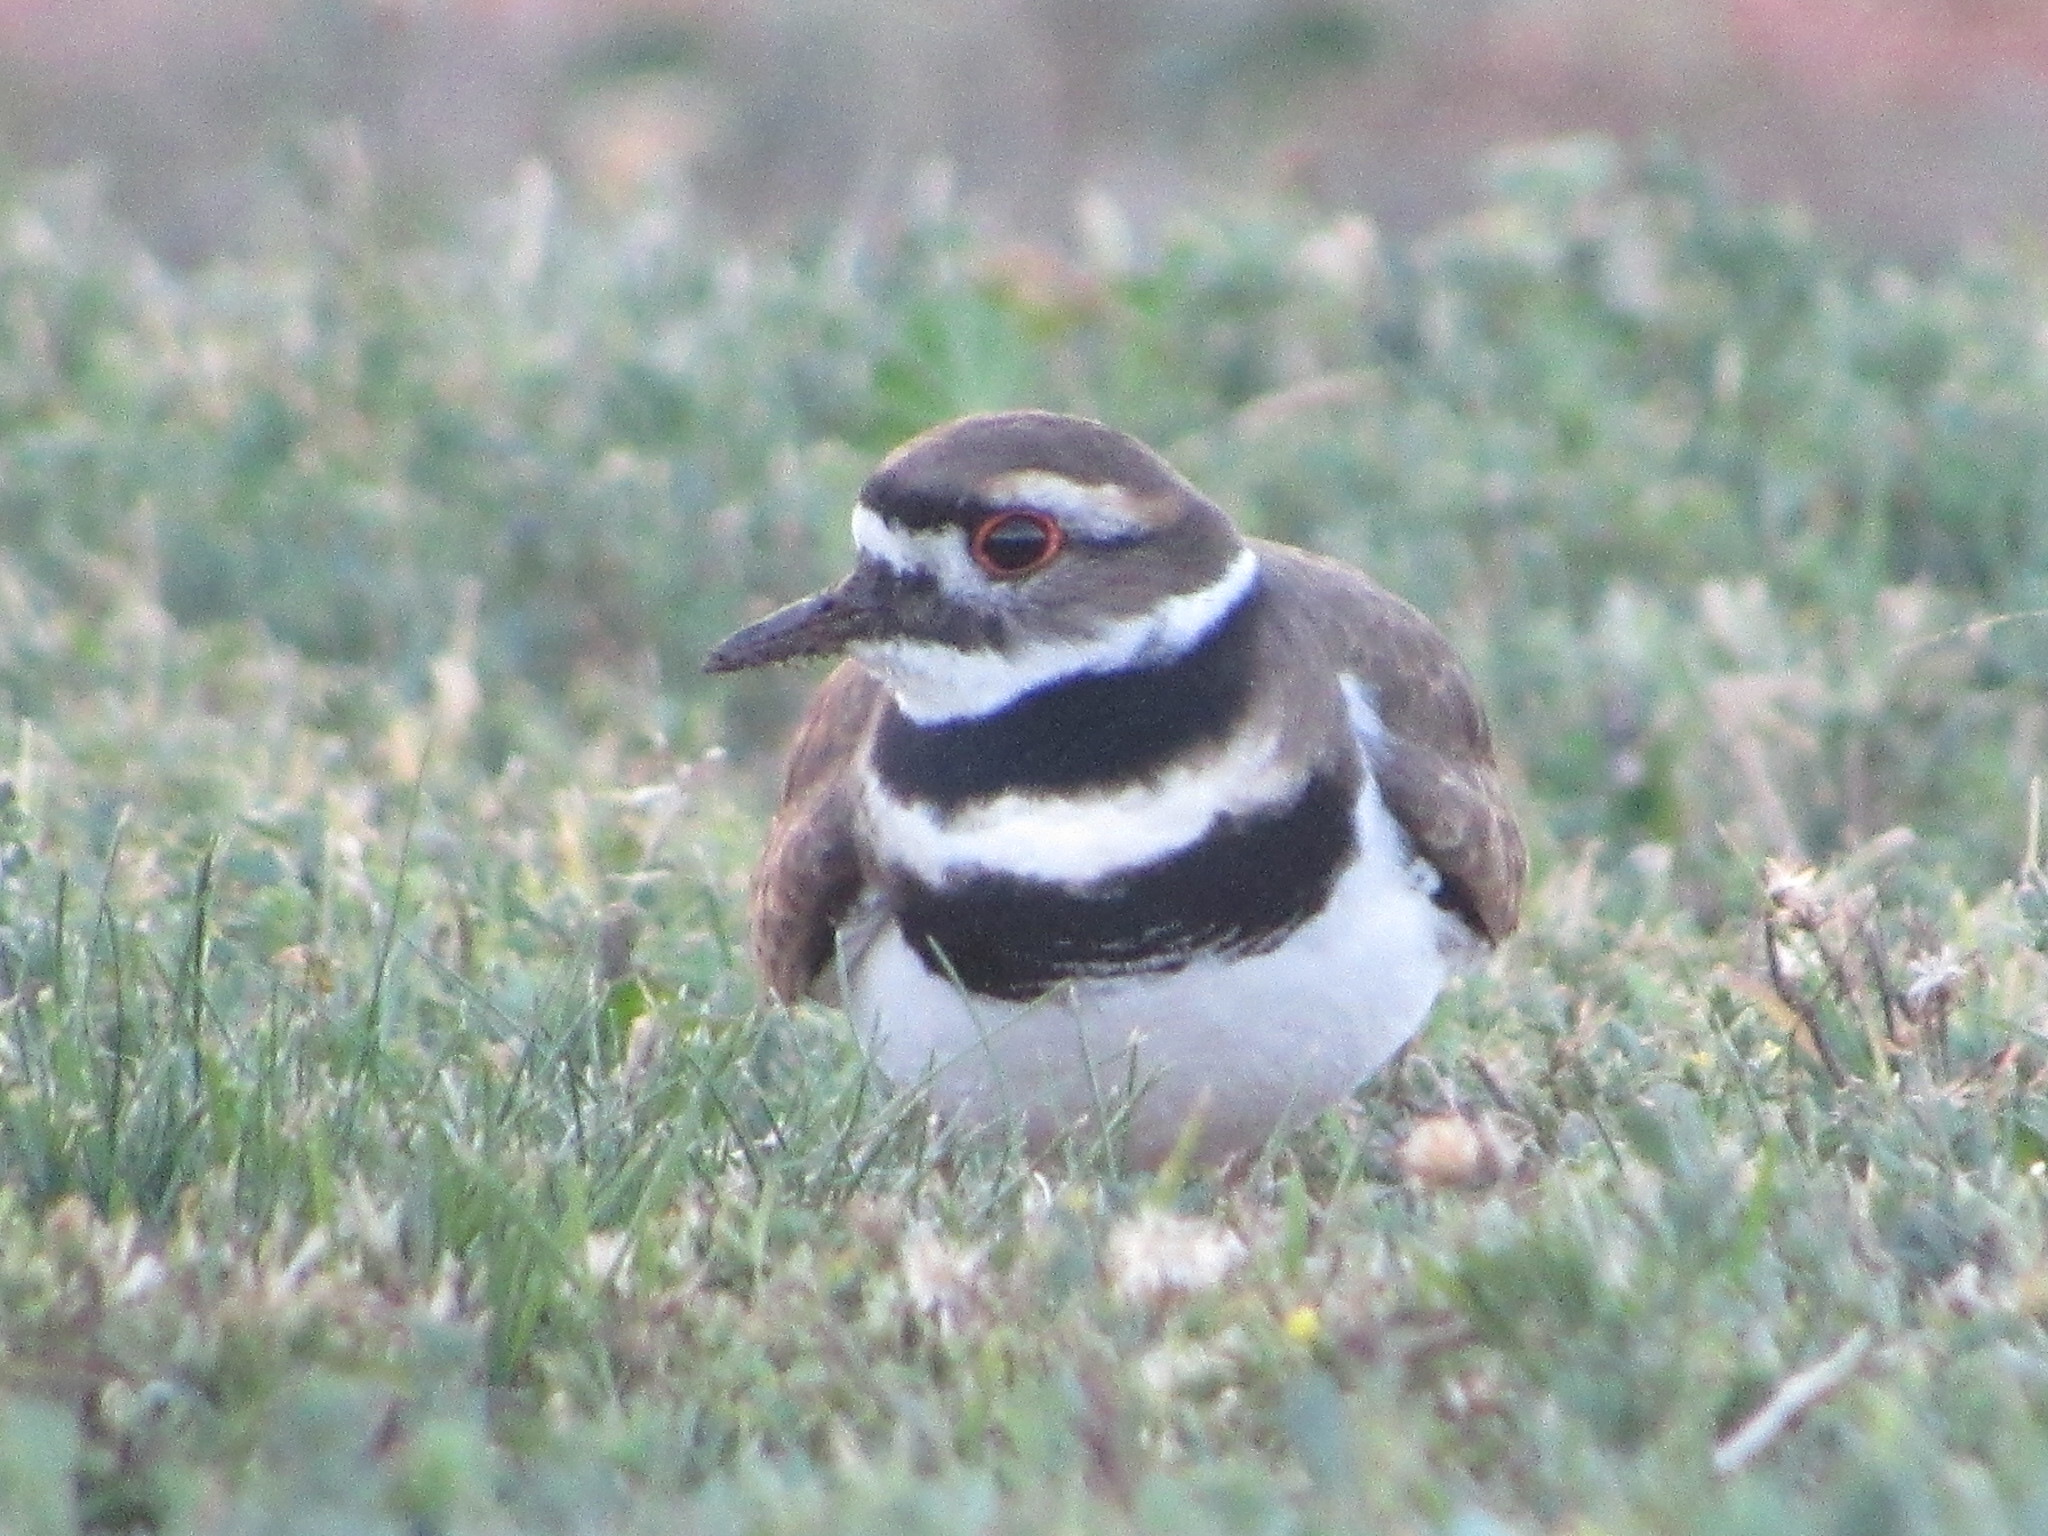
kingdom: Animalia
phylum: Chordata
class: Aves
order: Charadriiformes
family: Charadriidae
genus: Charadrius
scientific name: Charadrius vociferus
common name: Killdeer
